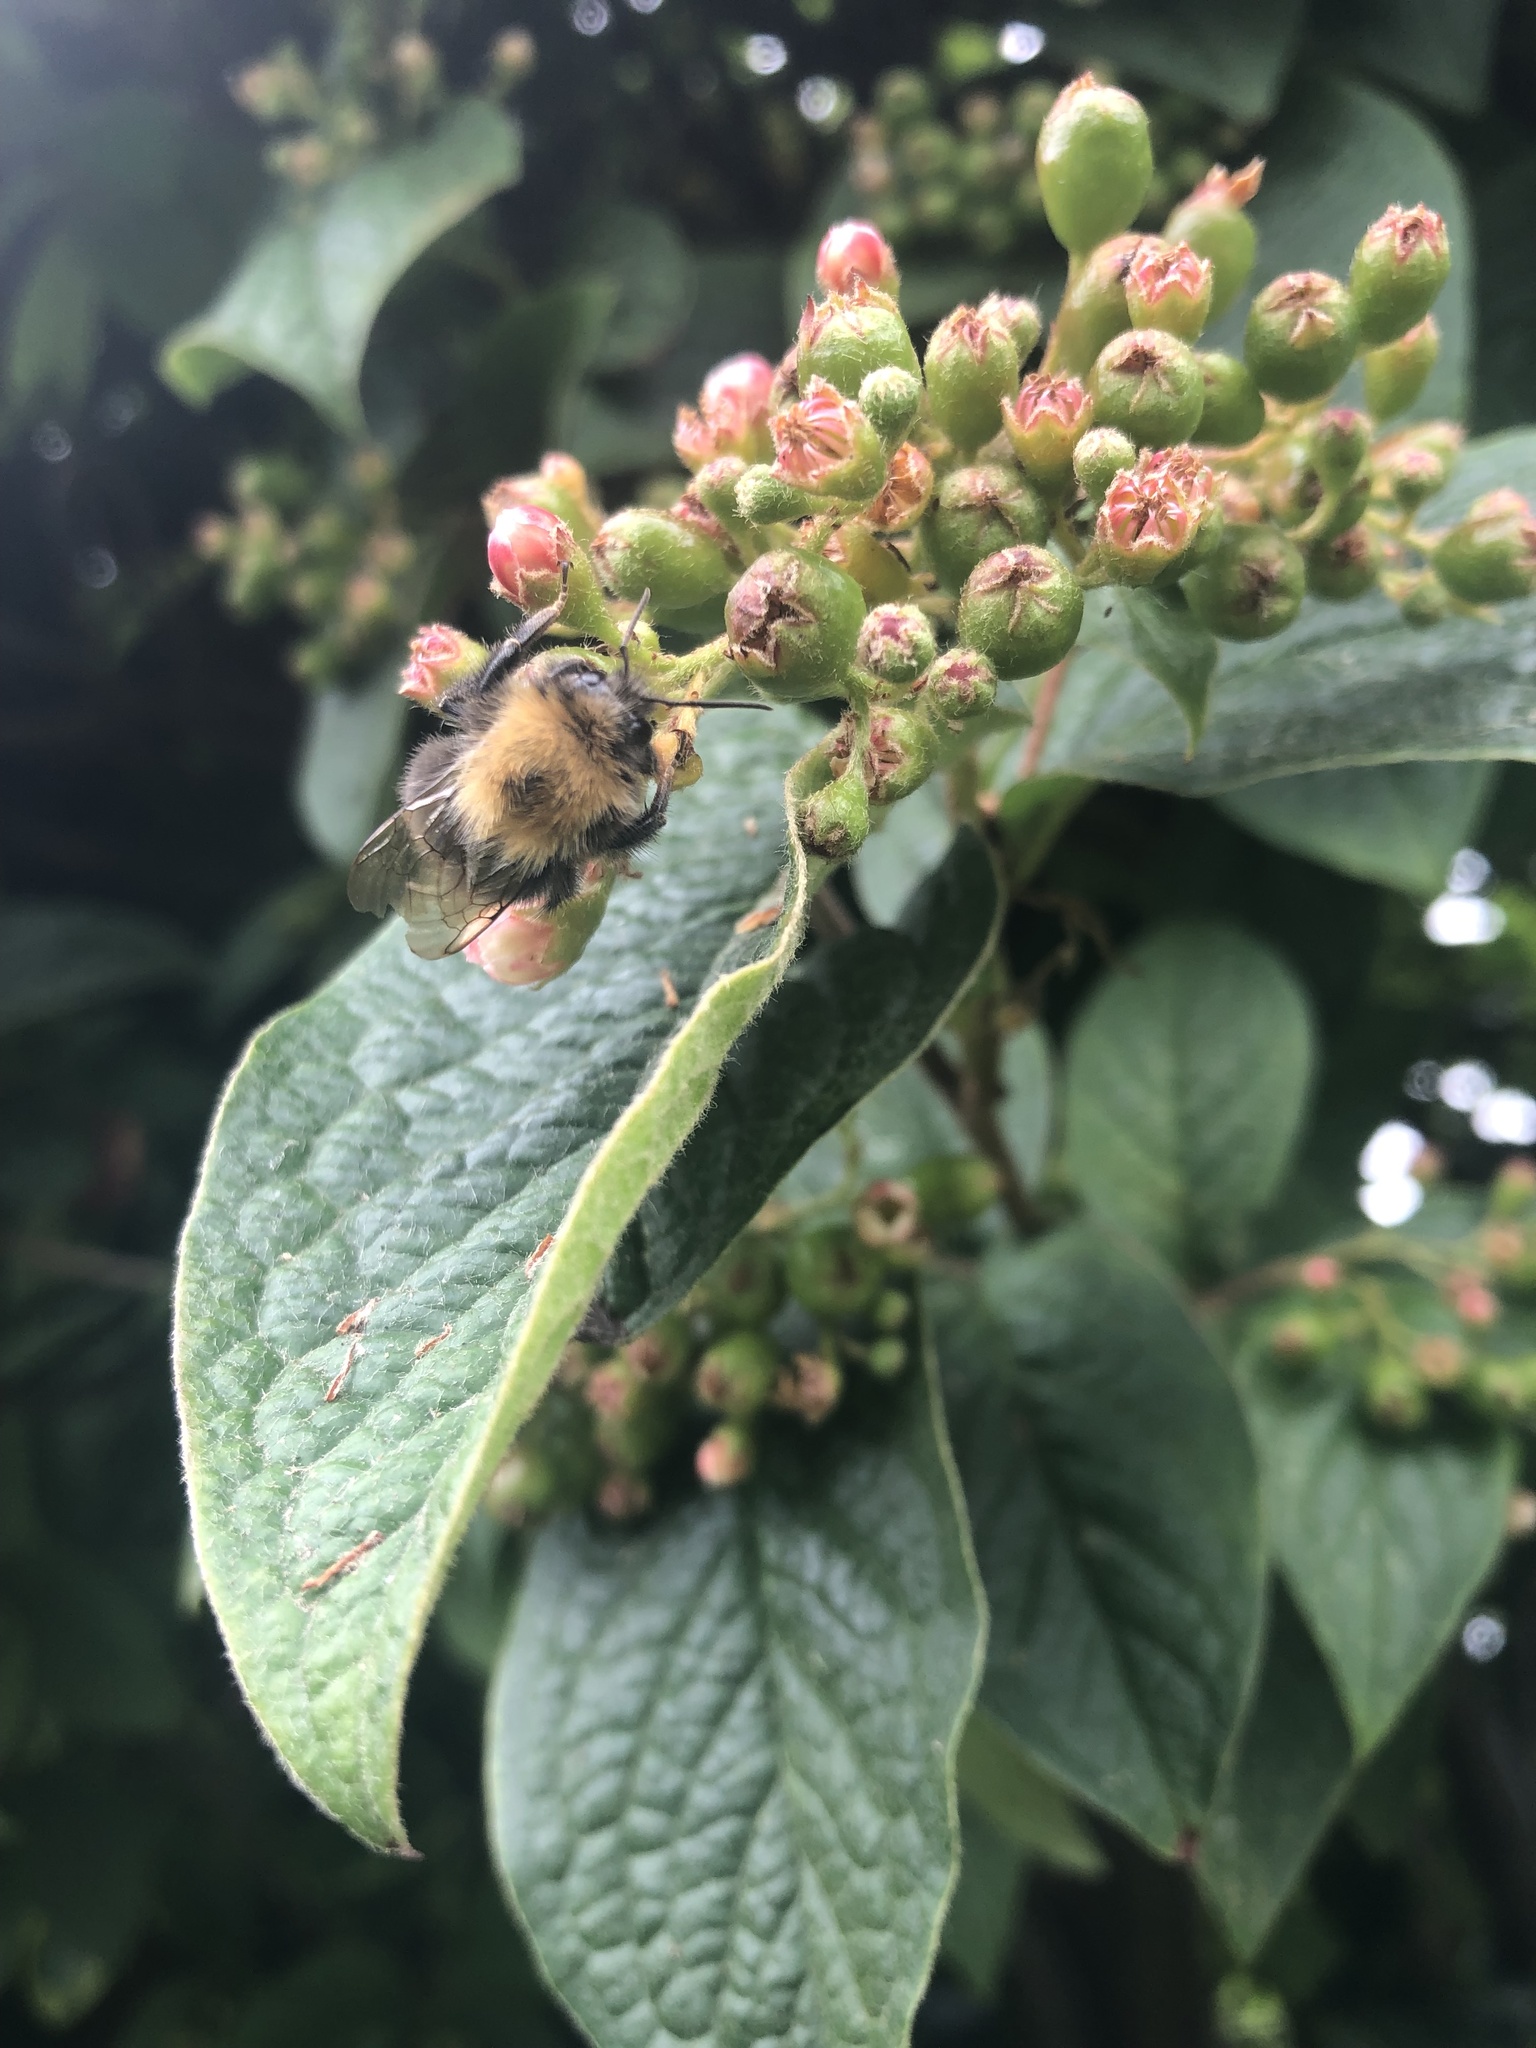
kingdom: Animalia
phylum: Arthropoda
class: Insecta
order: Hymenoptera
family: Apidae
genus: Bombus
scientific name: Bombus hypnorum
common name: New garden bumblebee
